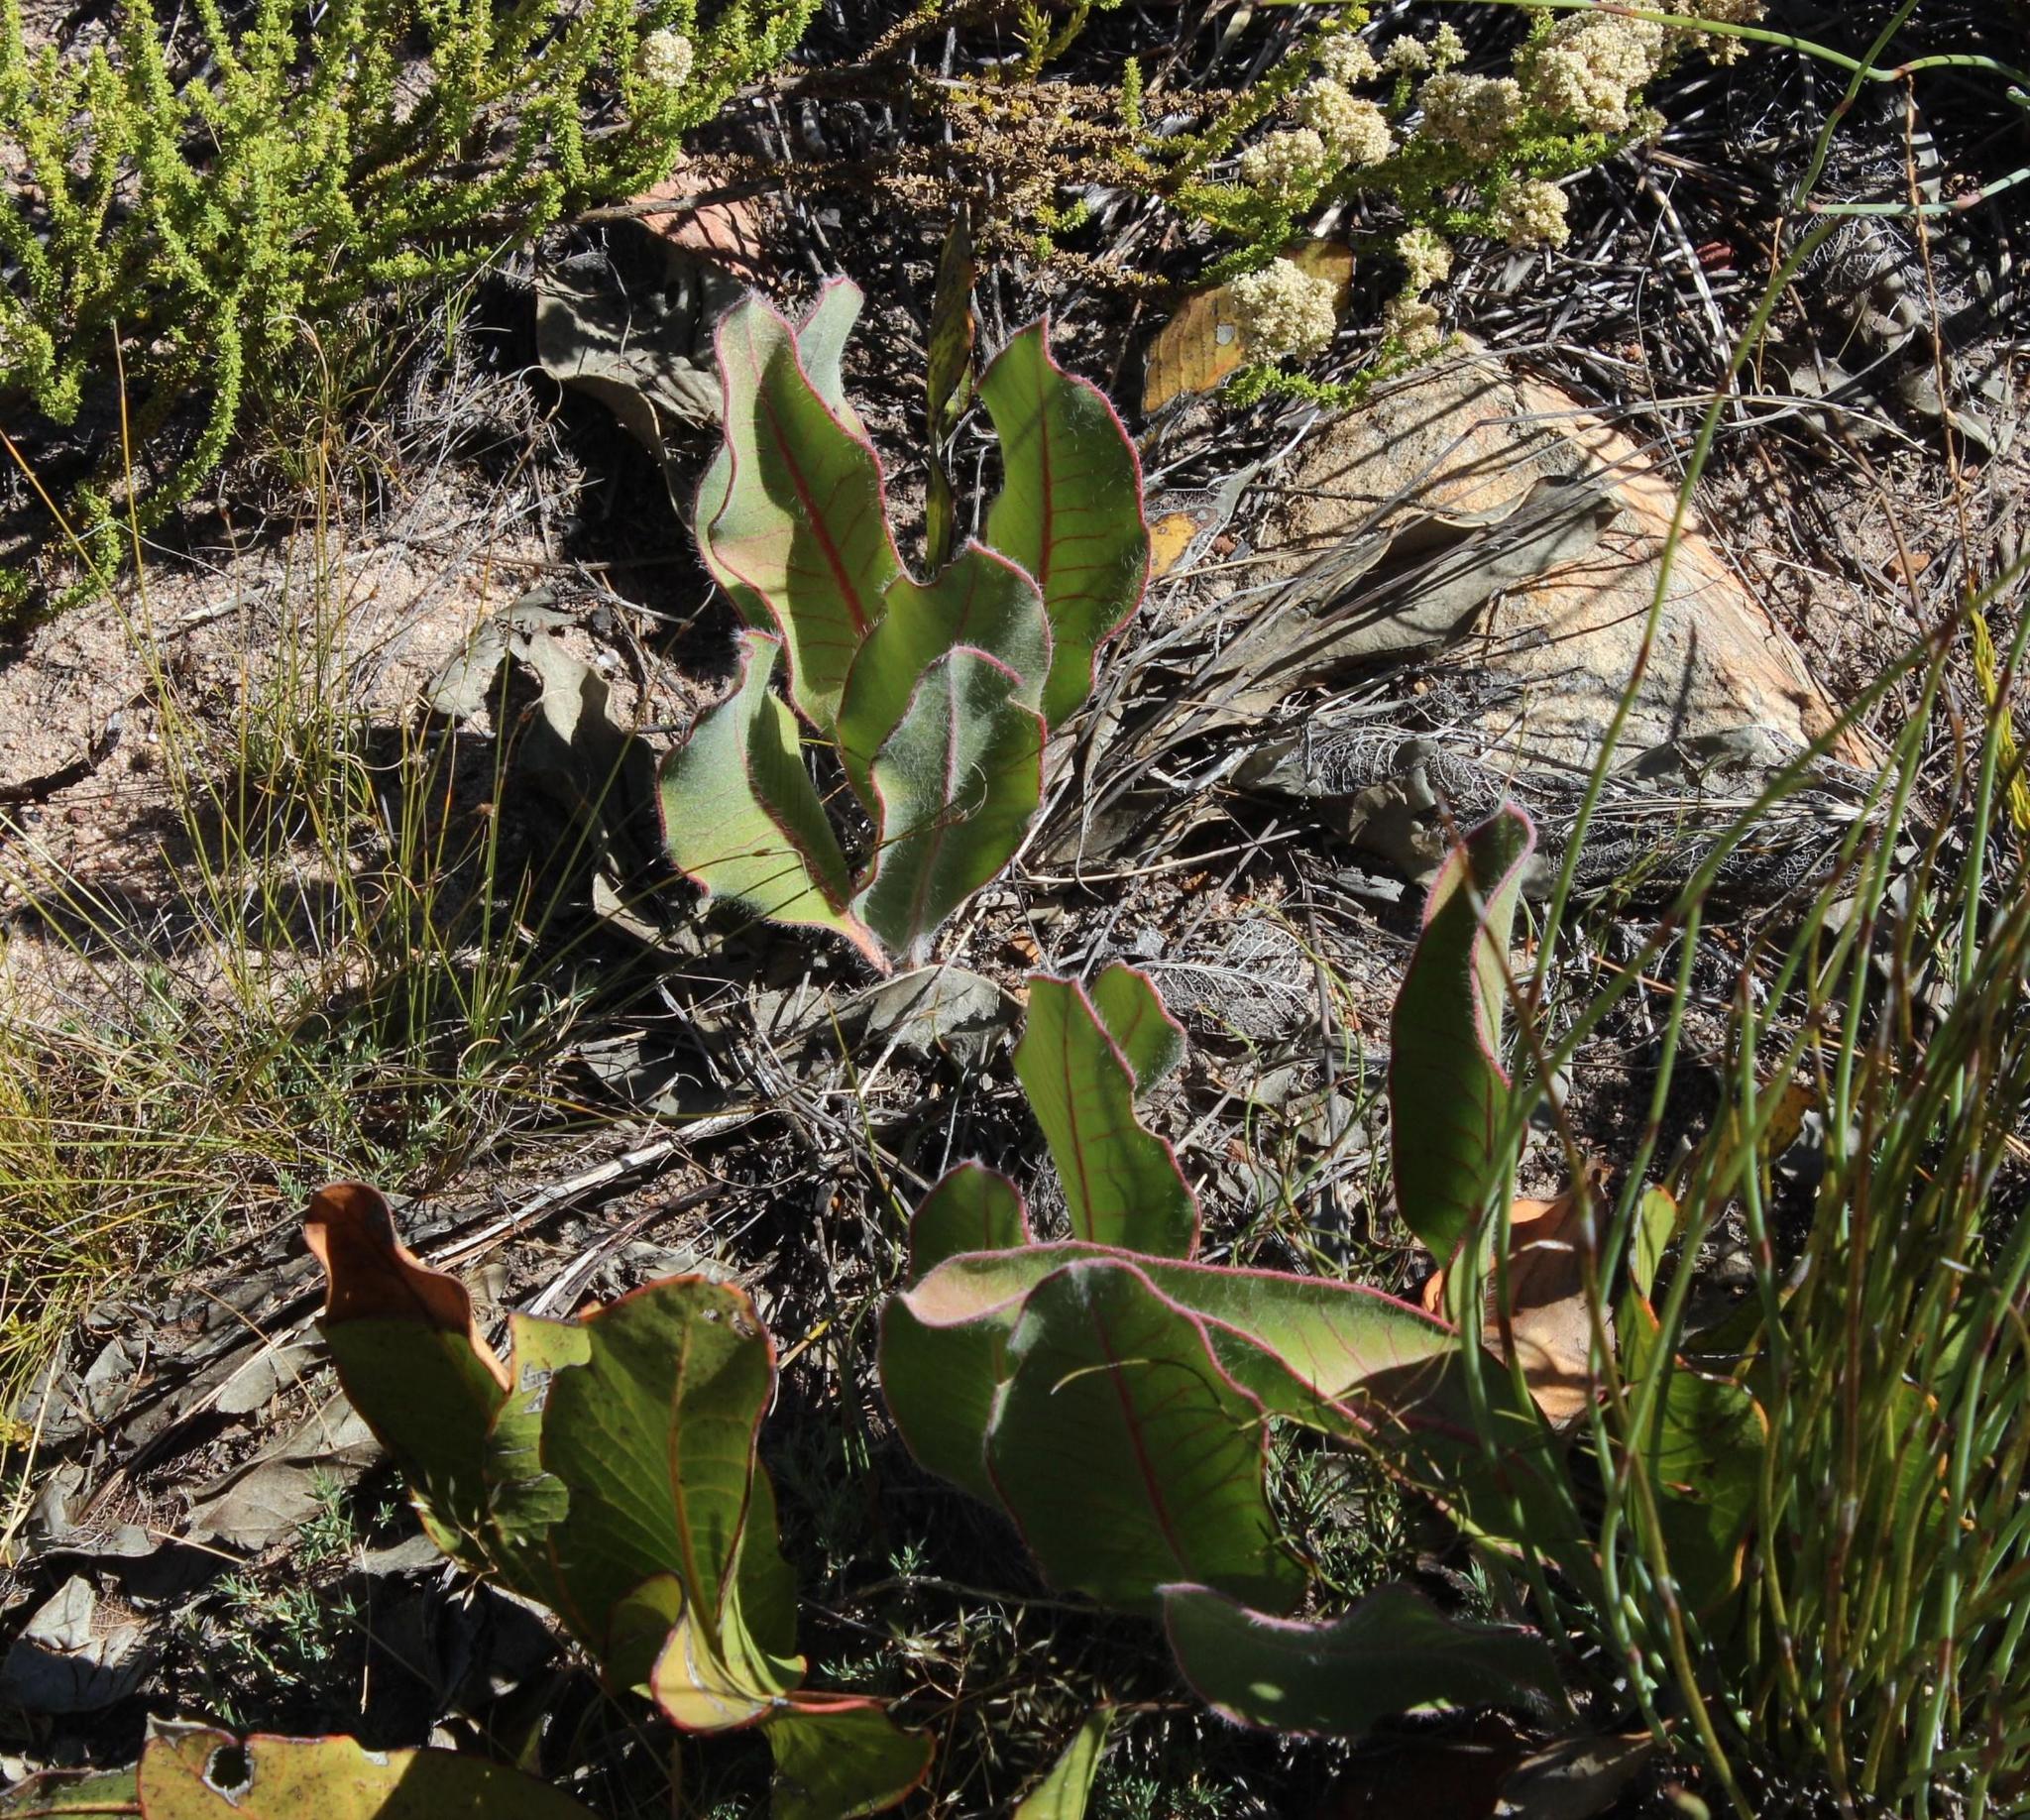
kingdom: Plantae
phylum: Tracheophyta
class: Magnoliopsida
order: Proteales
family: Proteaceae
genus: Protea
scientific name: Protea scolopendriifolia
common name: Harts-tongue-fern sugarbush
